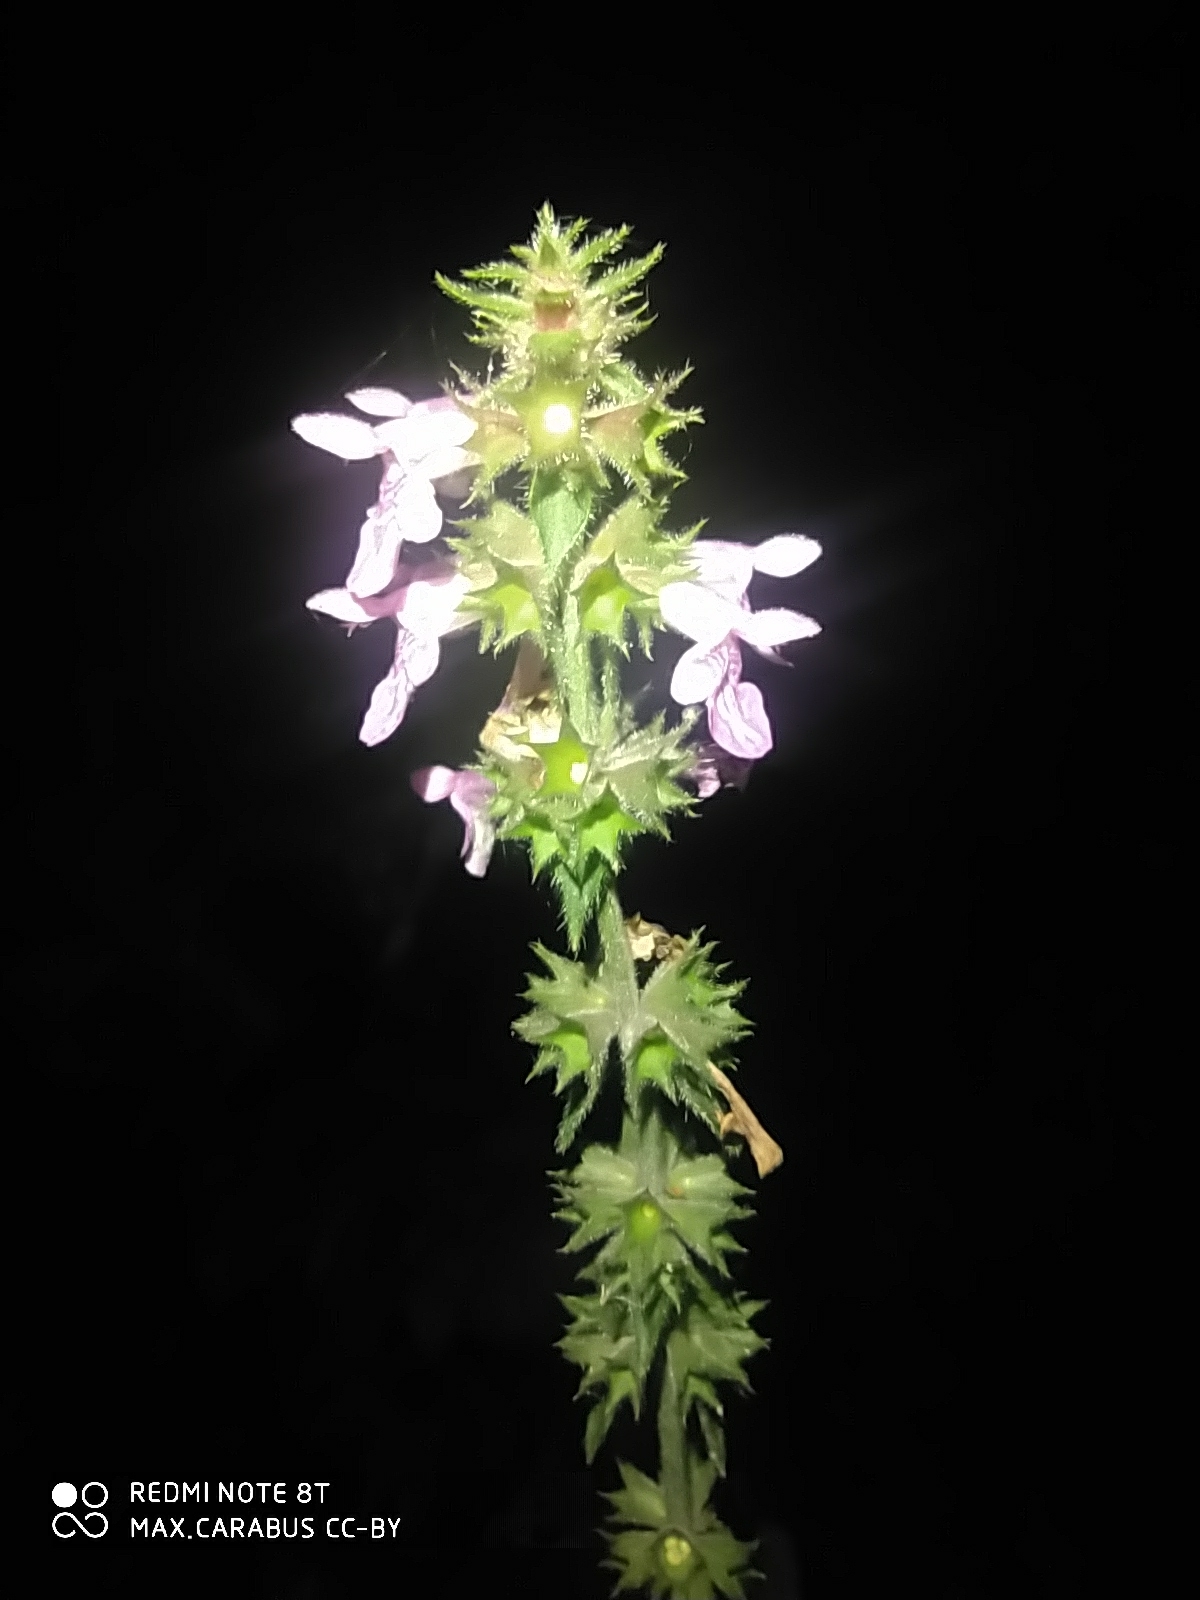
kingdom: Plantae
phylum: Tracheophyta
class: Magnoliopsida
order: Lamiales
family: Lamiaceae
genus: Stachys
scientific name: Stachys palustris
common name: Marsh woundwort
